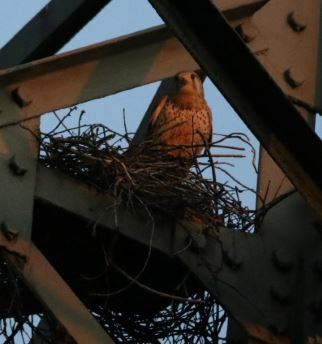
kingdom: Animalia
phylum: Chordata
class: Aves
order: Falconiformes
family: Falconidae
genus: Falco
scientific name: Falco tinnunculus
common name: Common kestrel
